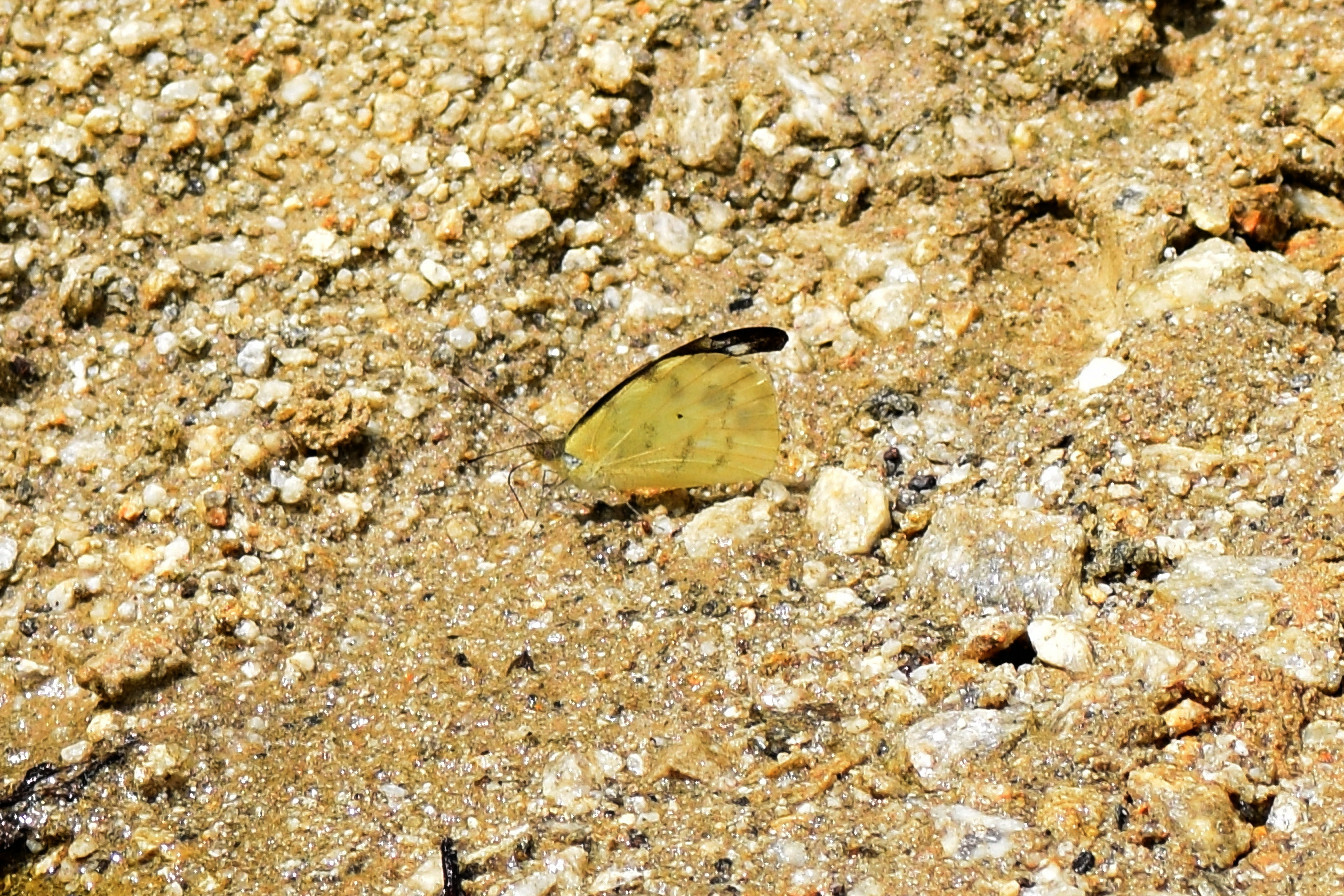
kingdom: Animalia
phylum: Arthropoda
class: Insecta
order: Lepidoptera
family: Pieridae
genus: Appias
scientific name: Appias lalage
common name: Spot puffin
